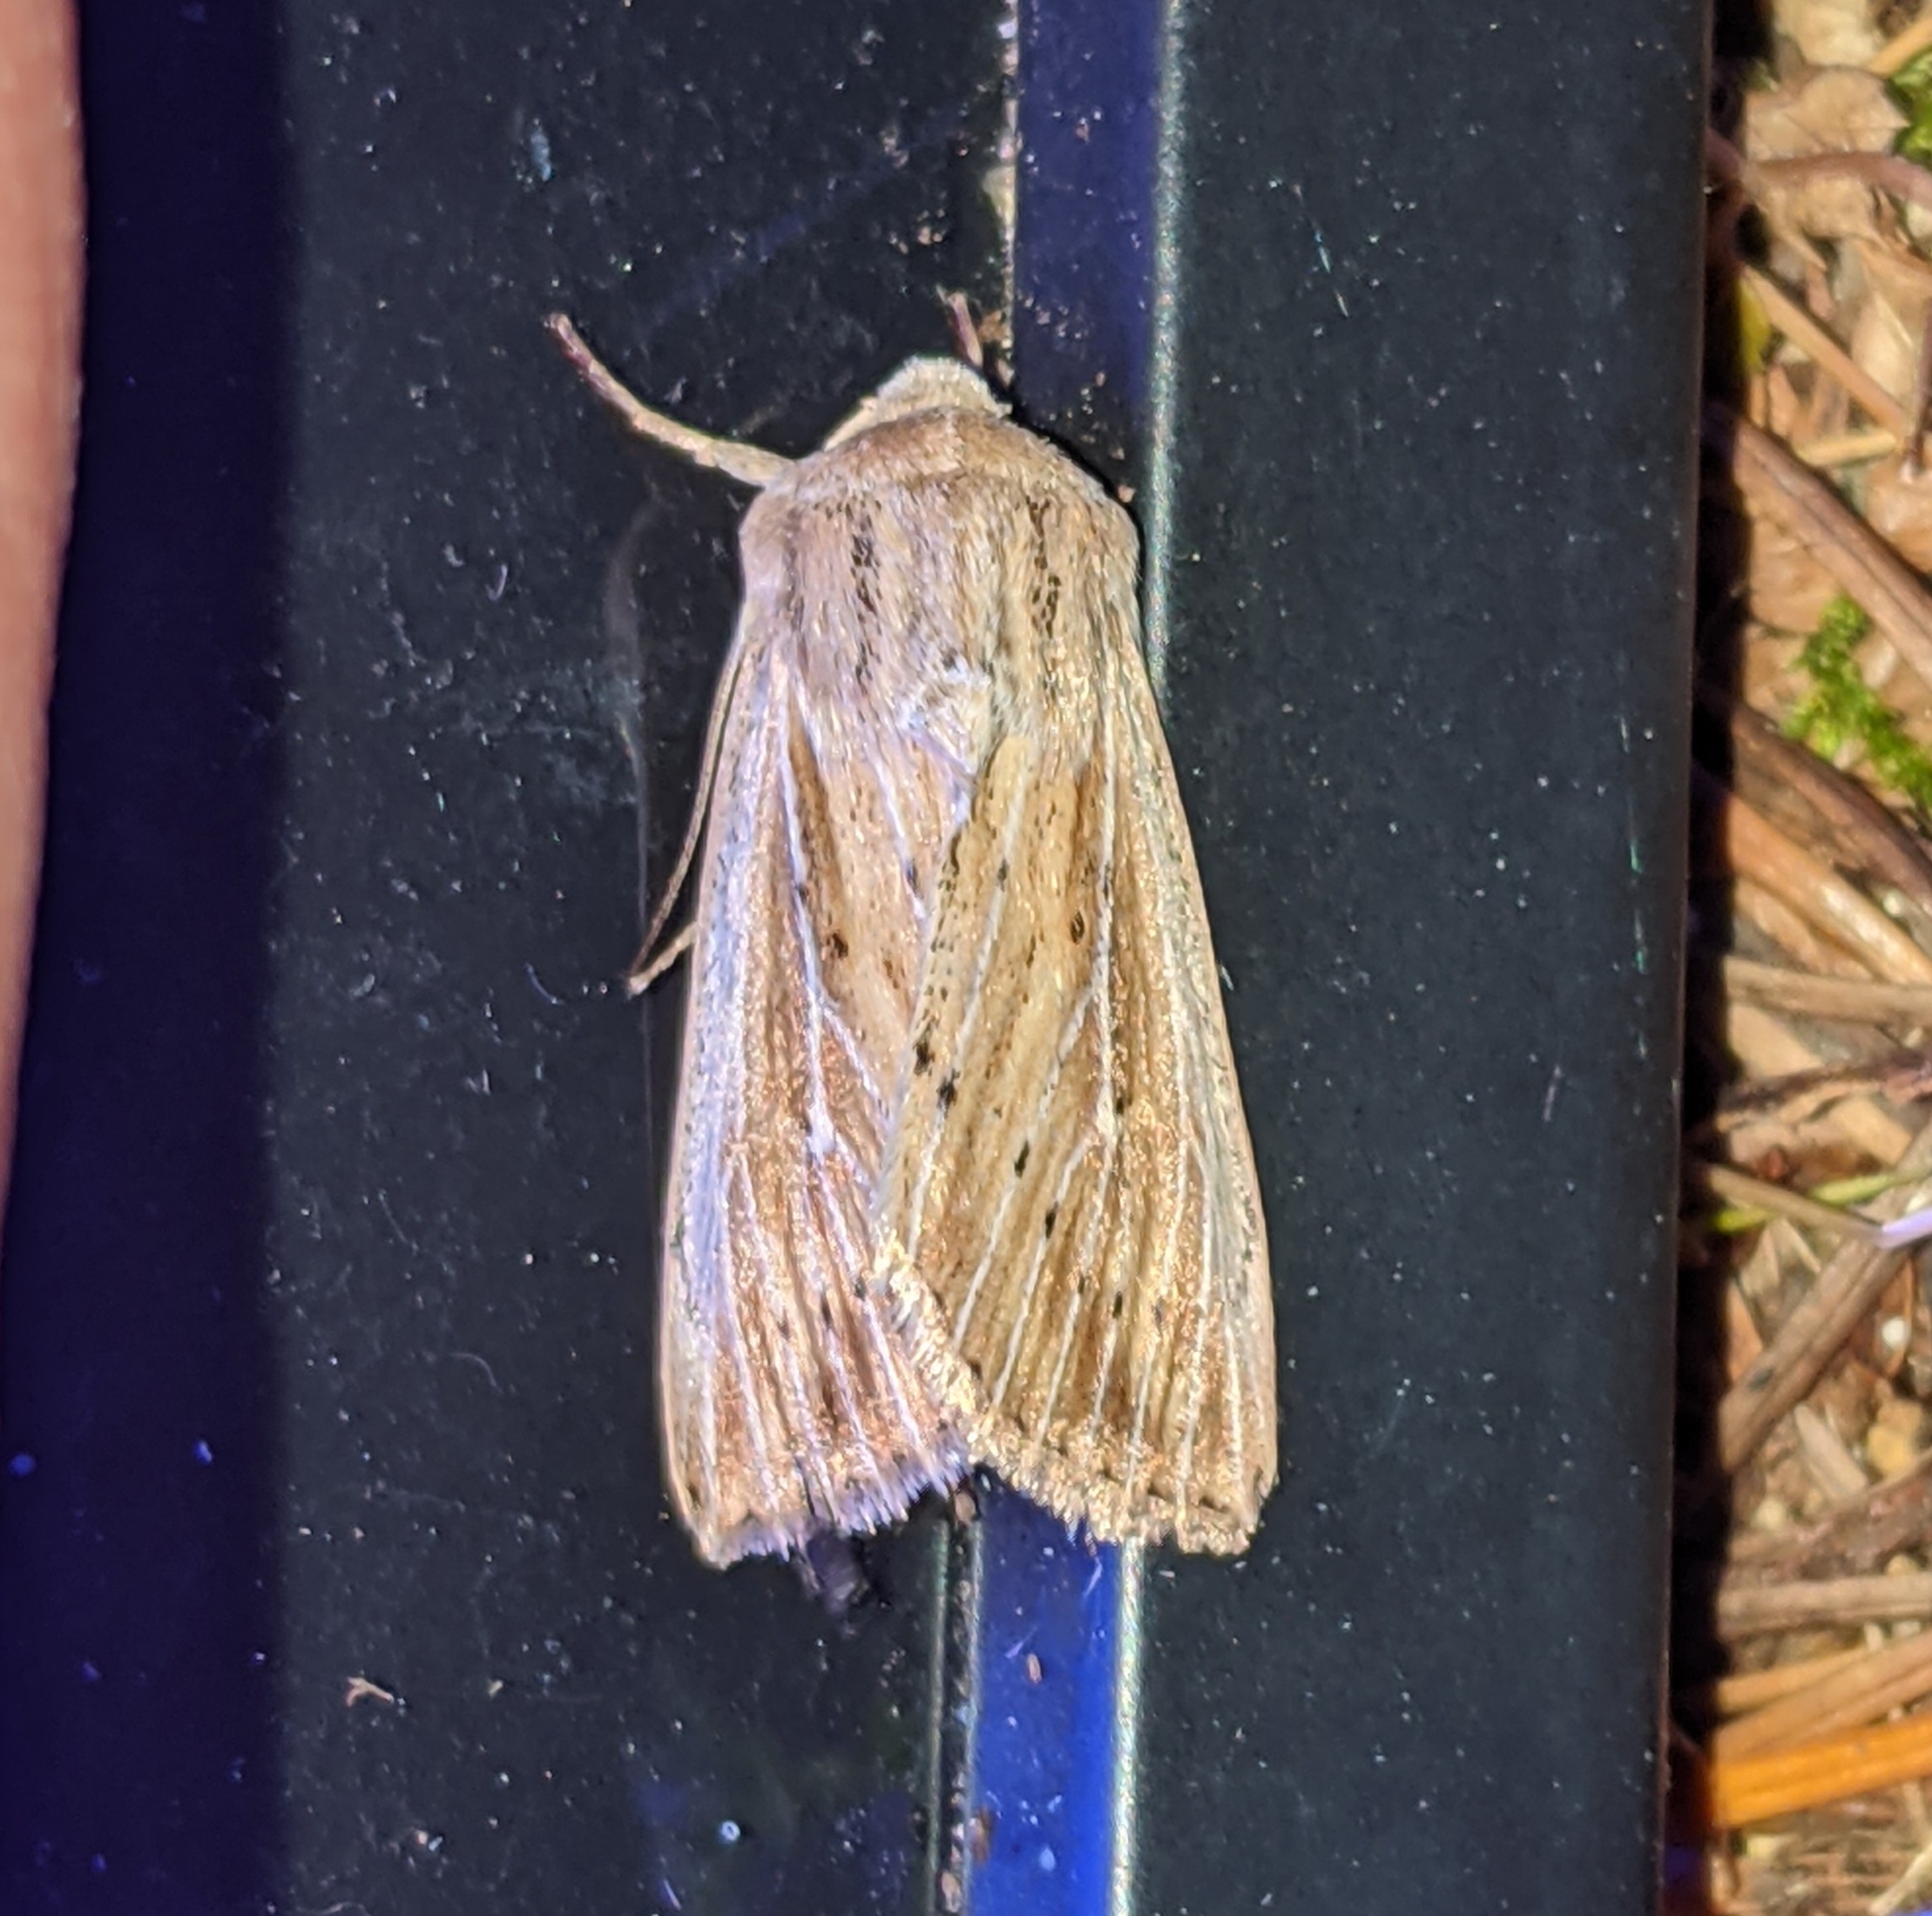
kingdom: Animalia
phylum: Arthropoda
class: Insecta
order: Lepidoptera
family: Noctuidae
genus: Leucania
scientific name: Leucania insueta
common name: Heterodox wainscot moth
